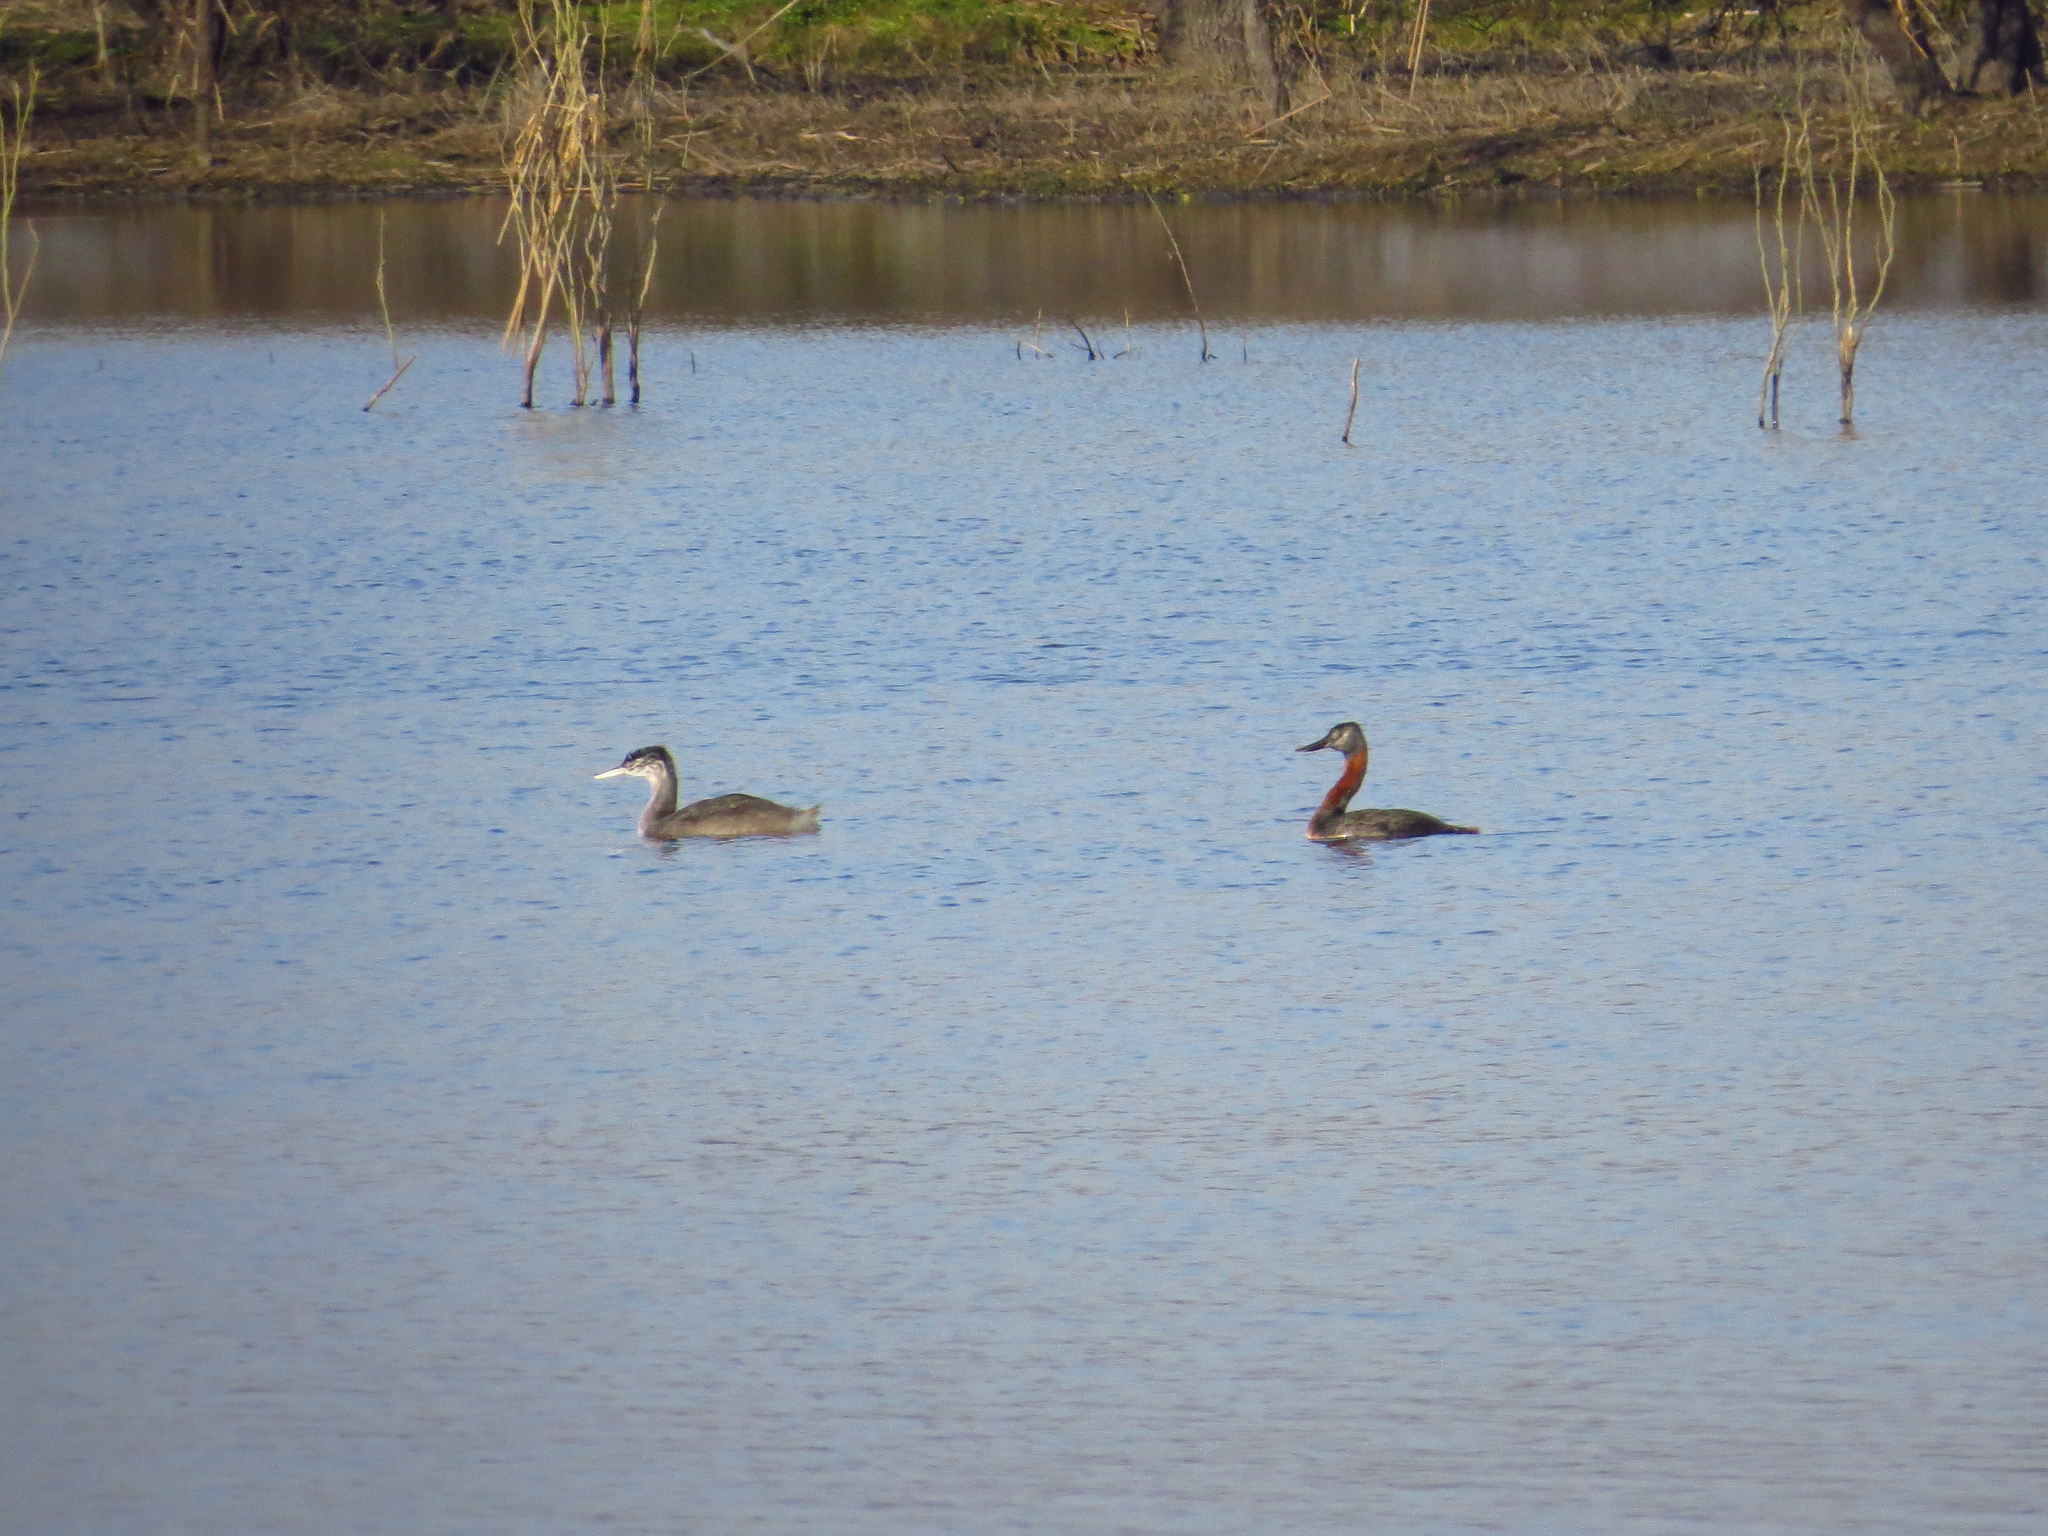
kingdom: Animalia
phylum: Chordata
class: Aves
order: Podicipediformes
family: Podicipedidae
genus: Podiceps
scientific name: Podiceps major
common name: Great grebe
